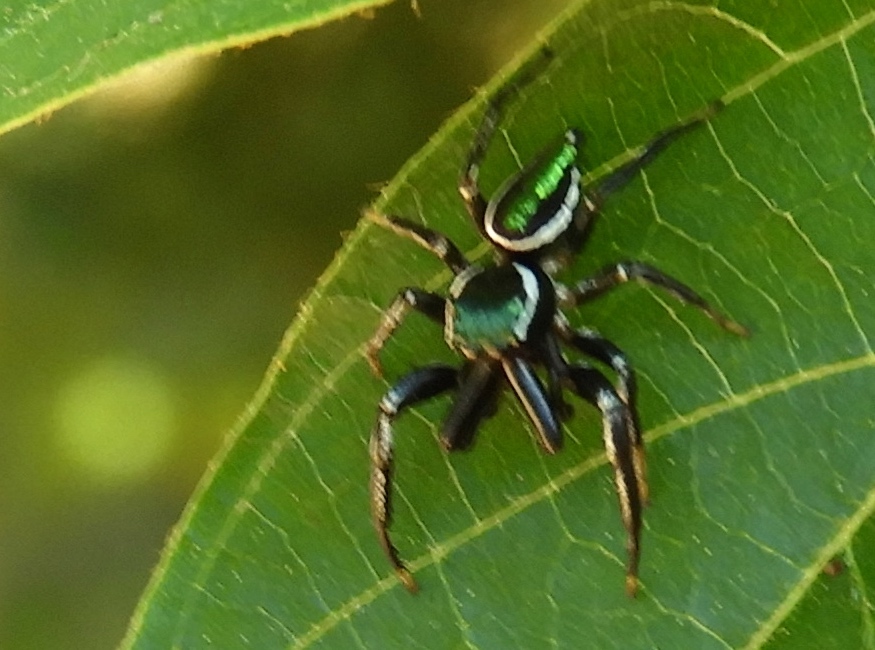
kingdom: Animalia
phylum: Arthropoda
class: Arachnida
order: Araneae
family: Salticidae
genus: Messua
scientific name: Messua
